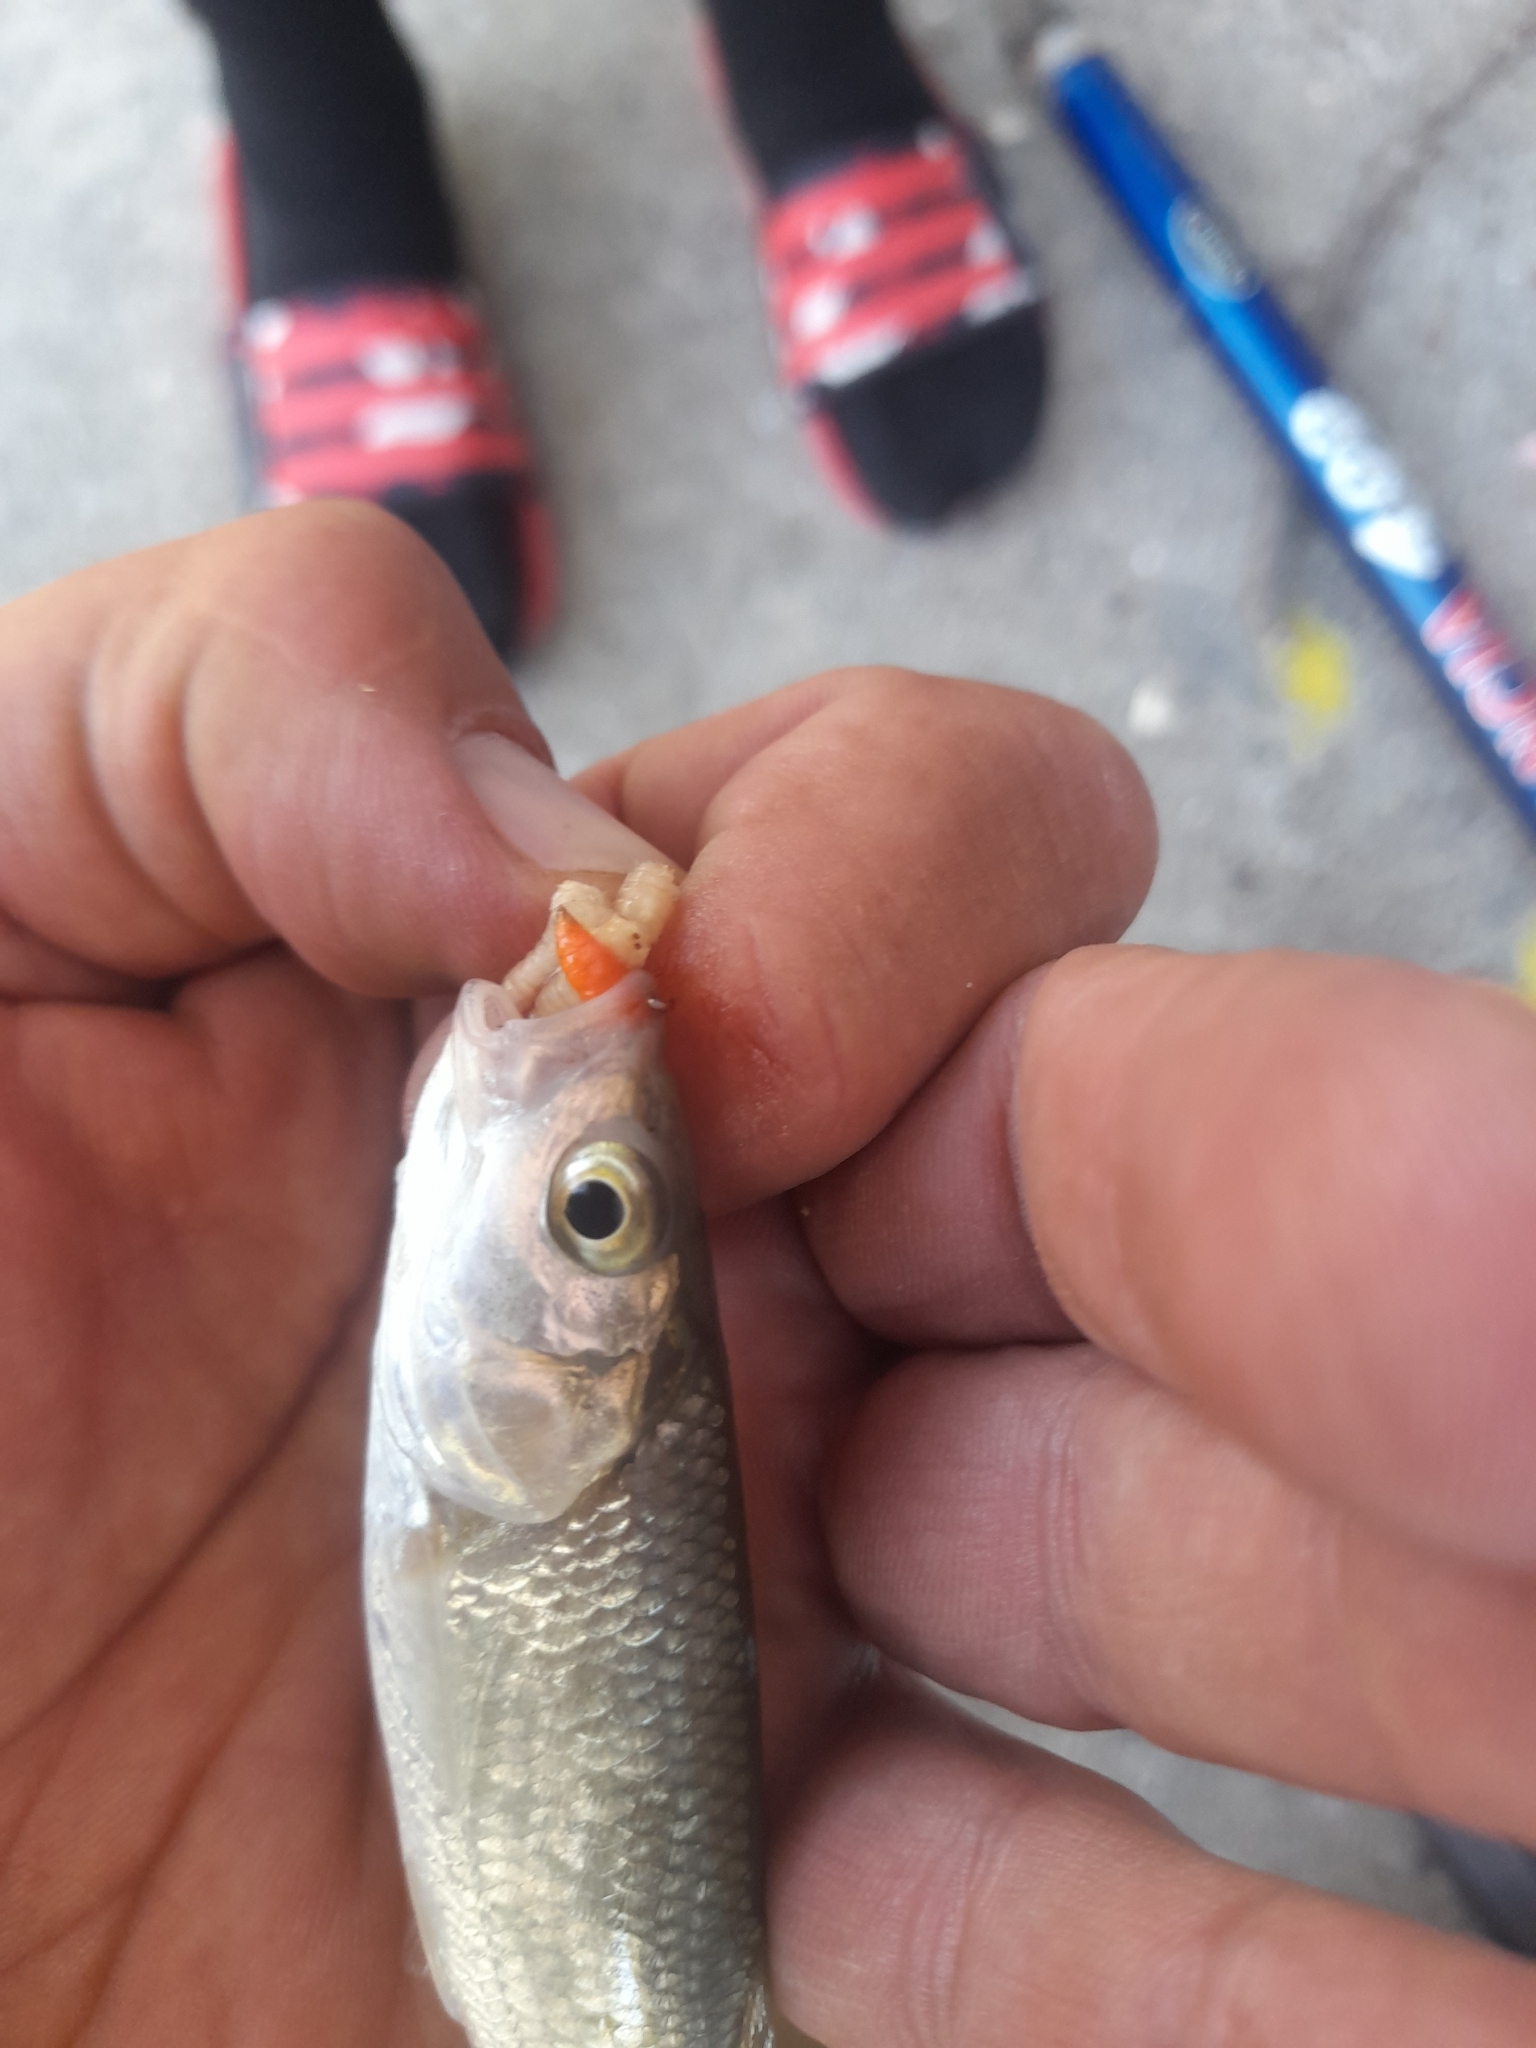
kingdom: Animalia
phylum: Chordata
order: Cypriniformes
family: Cyprinidae
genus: Squalius
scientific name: Squalius squalus
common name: Italian chub
